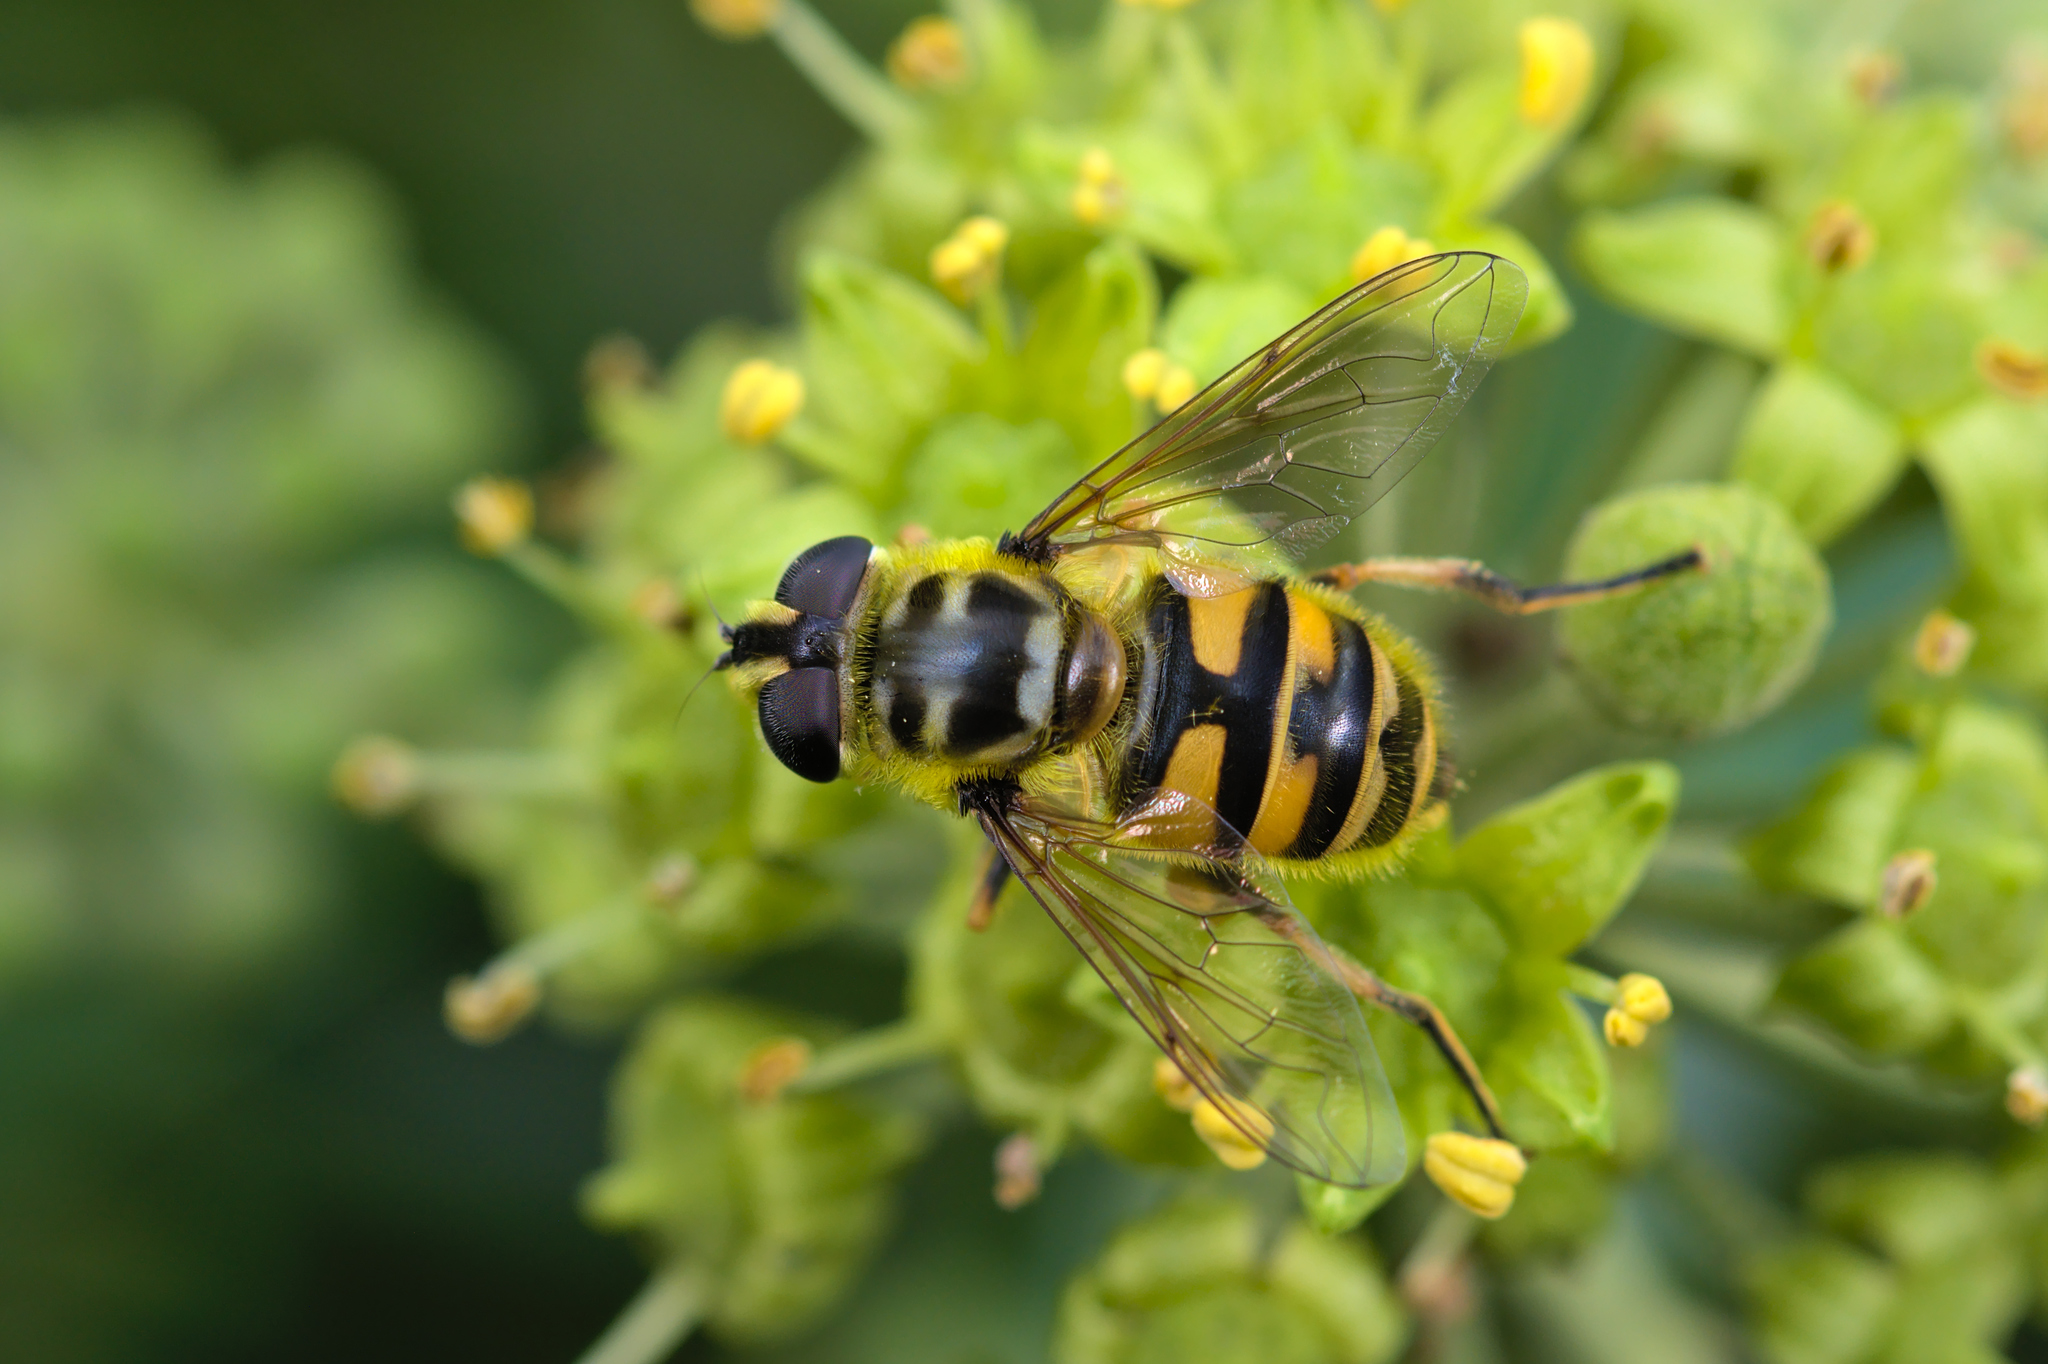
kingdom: Animalia
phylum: Arthropoda
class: Insecta
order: Diptera
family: Syrphidae
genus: Myathropa
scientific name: Myathropa florea
